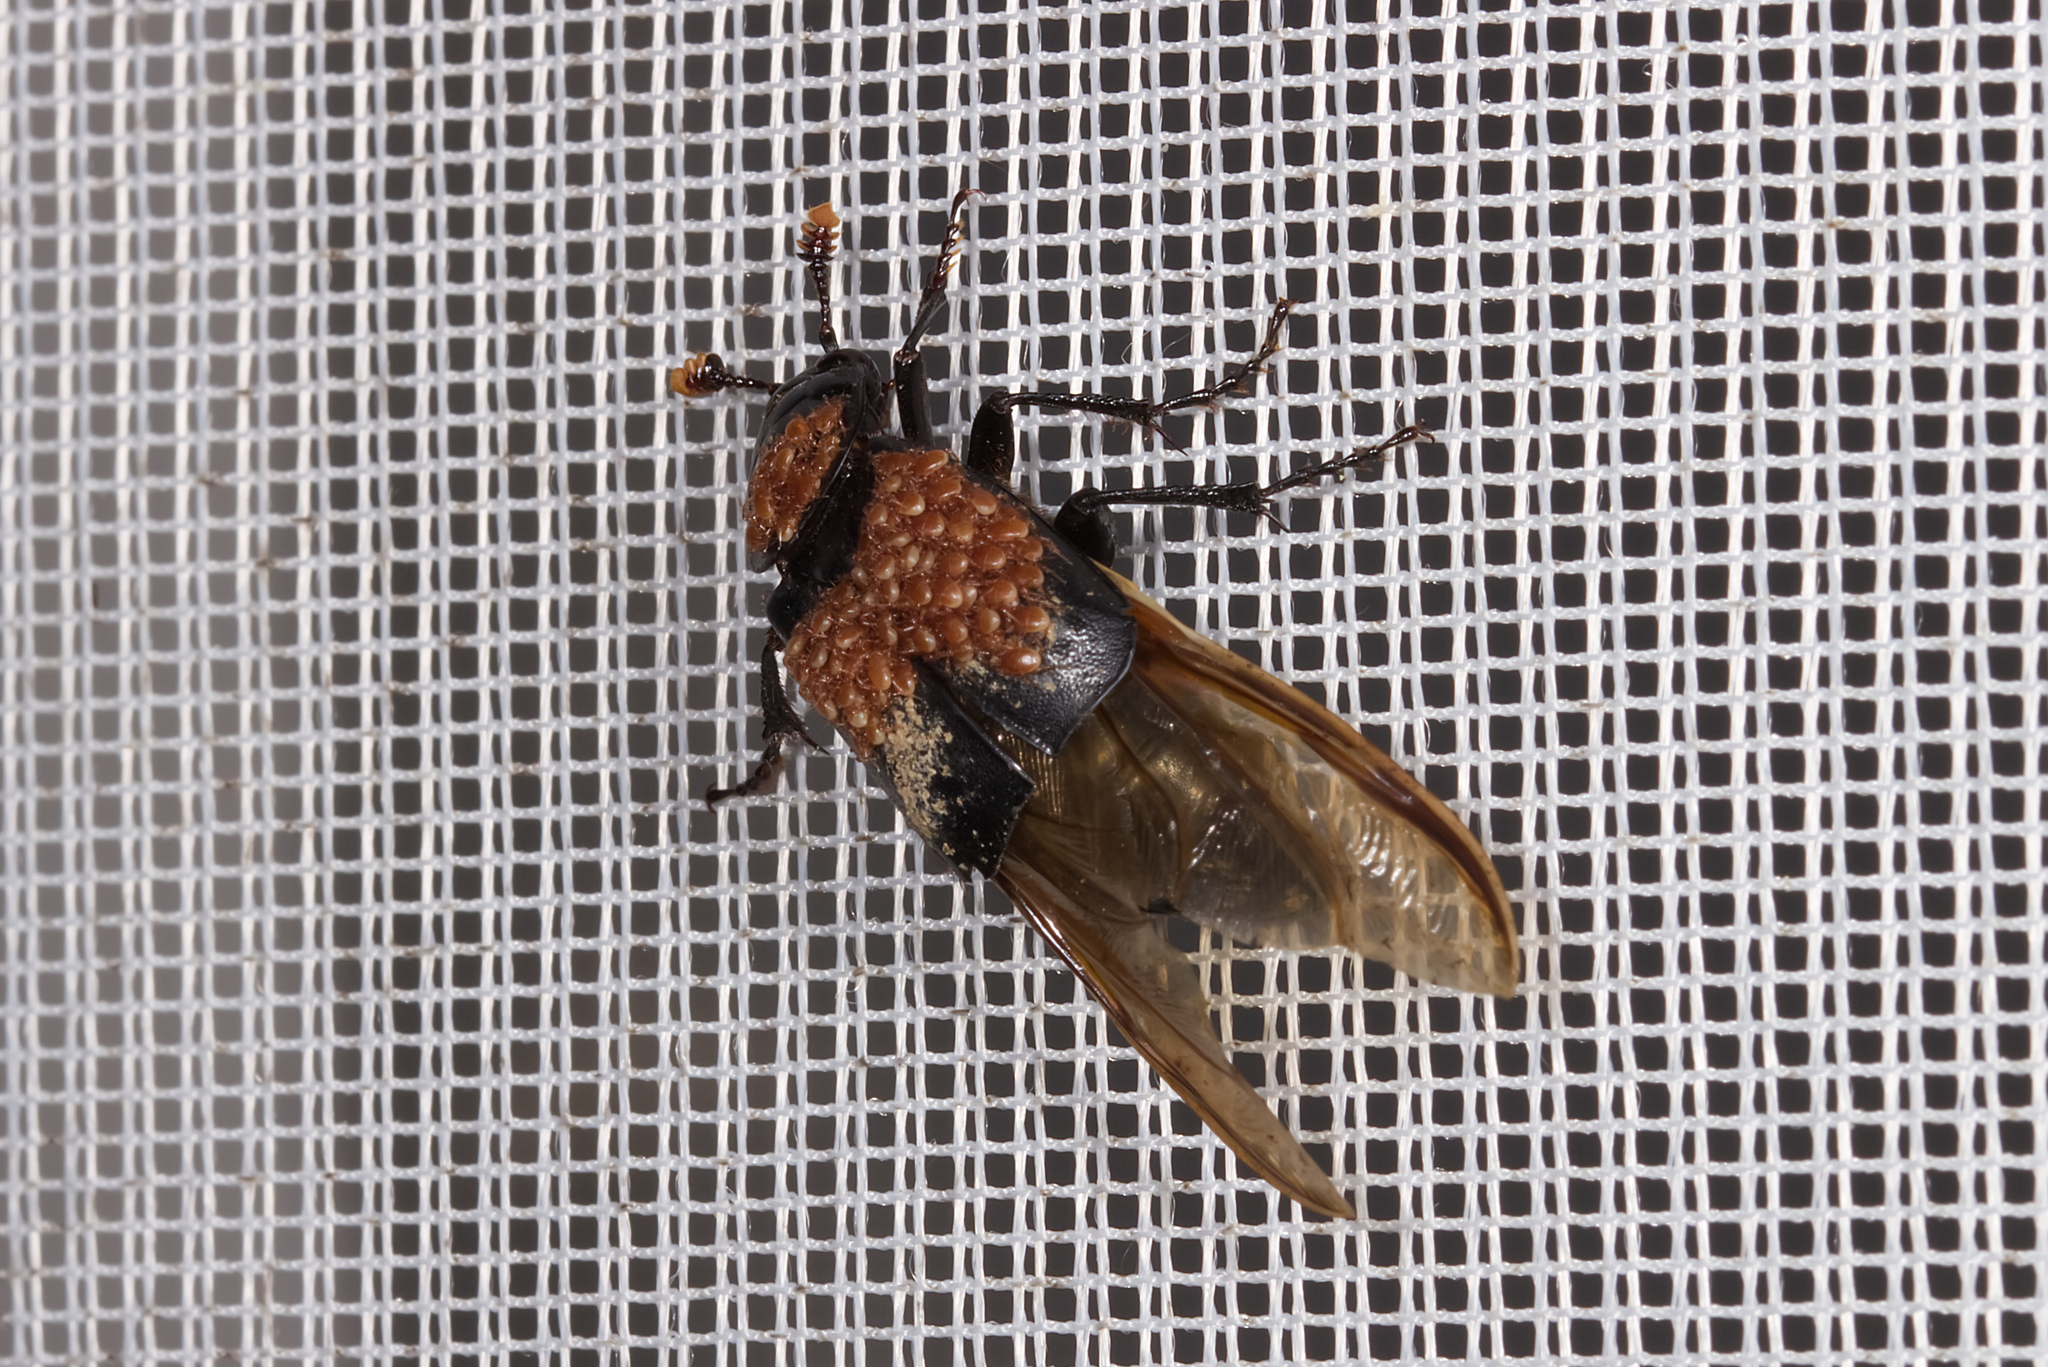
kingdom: Animalia
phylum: Arthropoda
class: Insecta
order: Coleoptera
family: Staphylinidae
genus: Nicrophorus
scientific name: Nicrophorus humator
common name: Black sexton beetle
